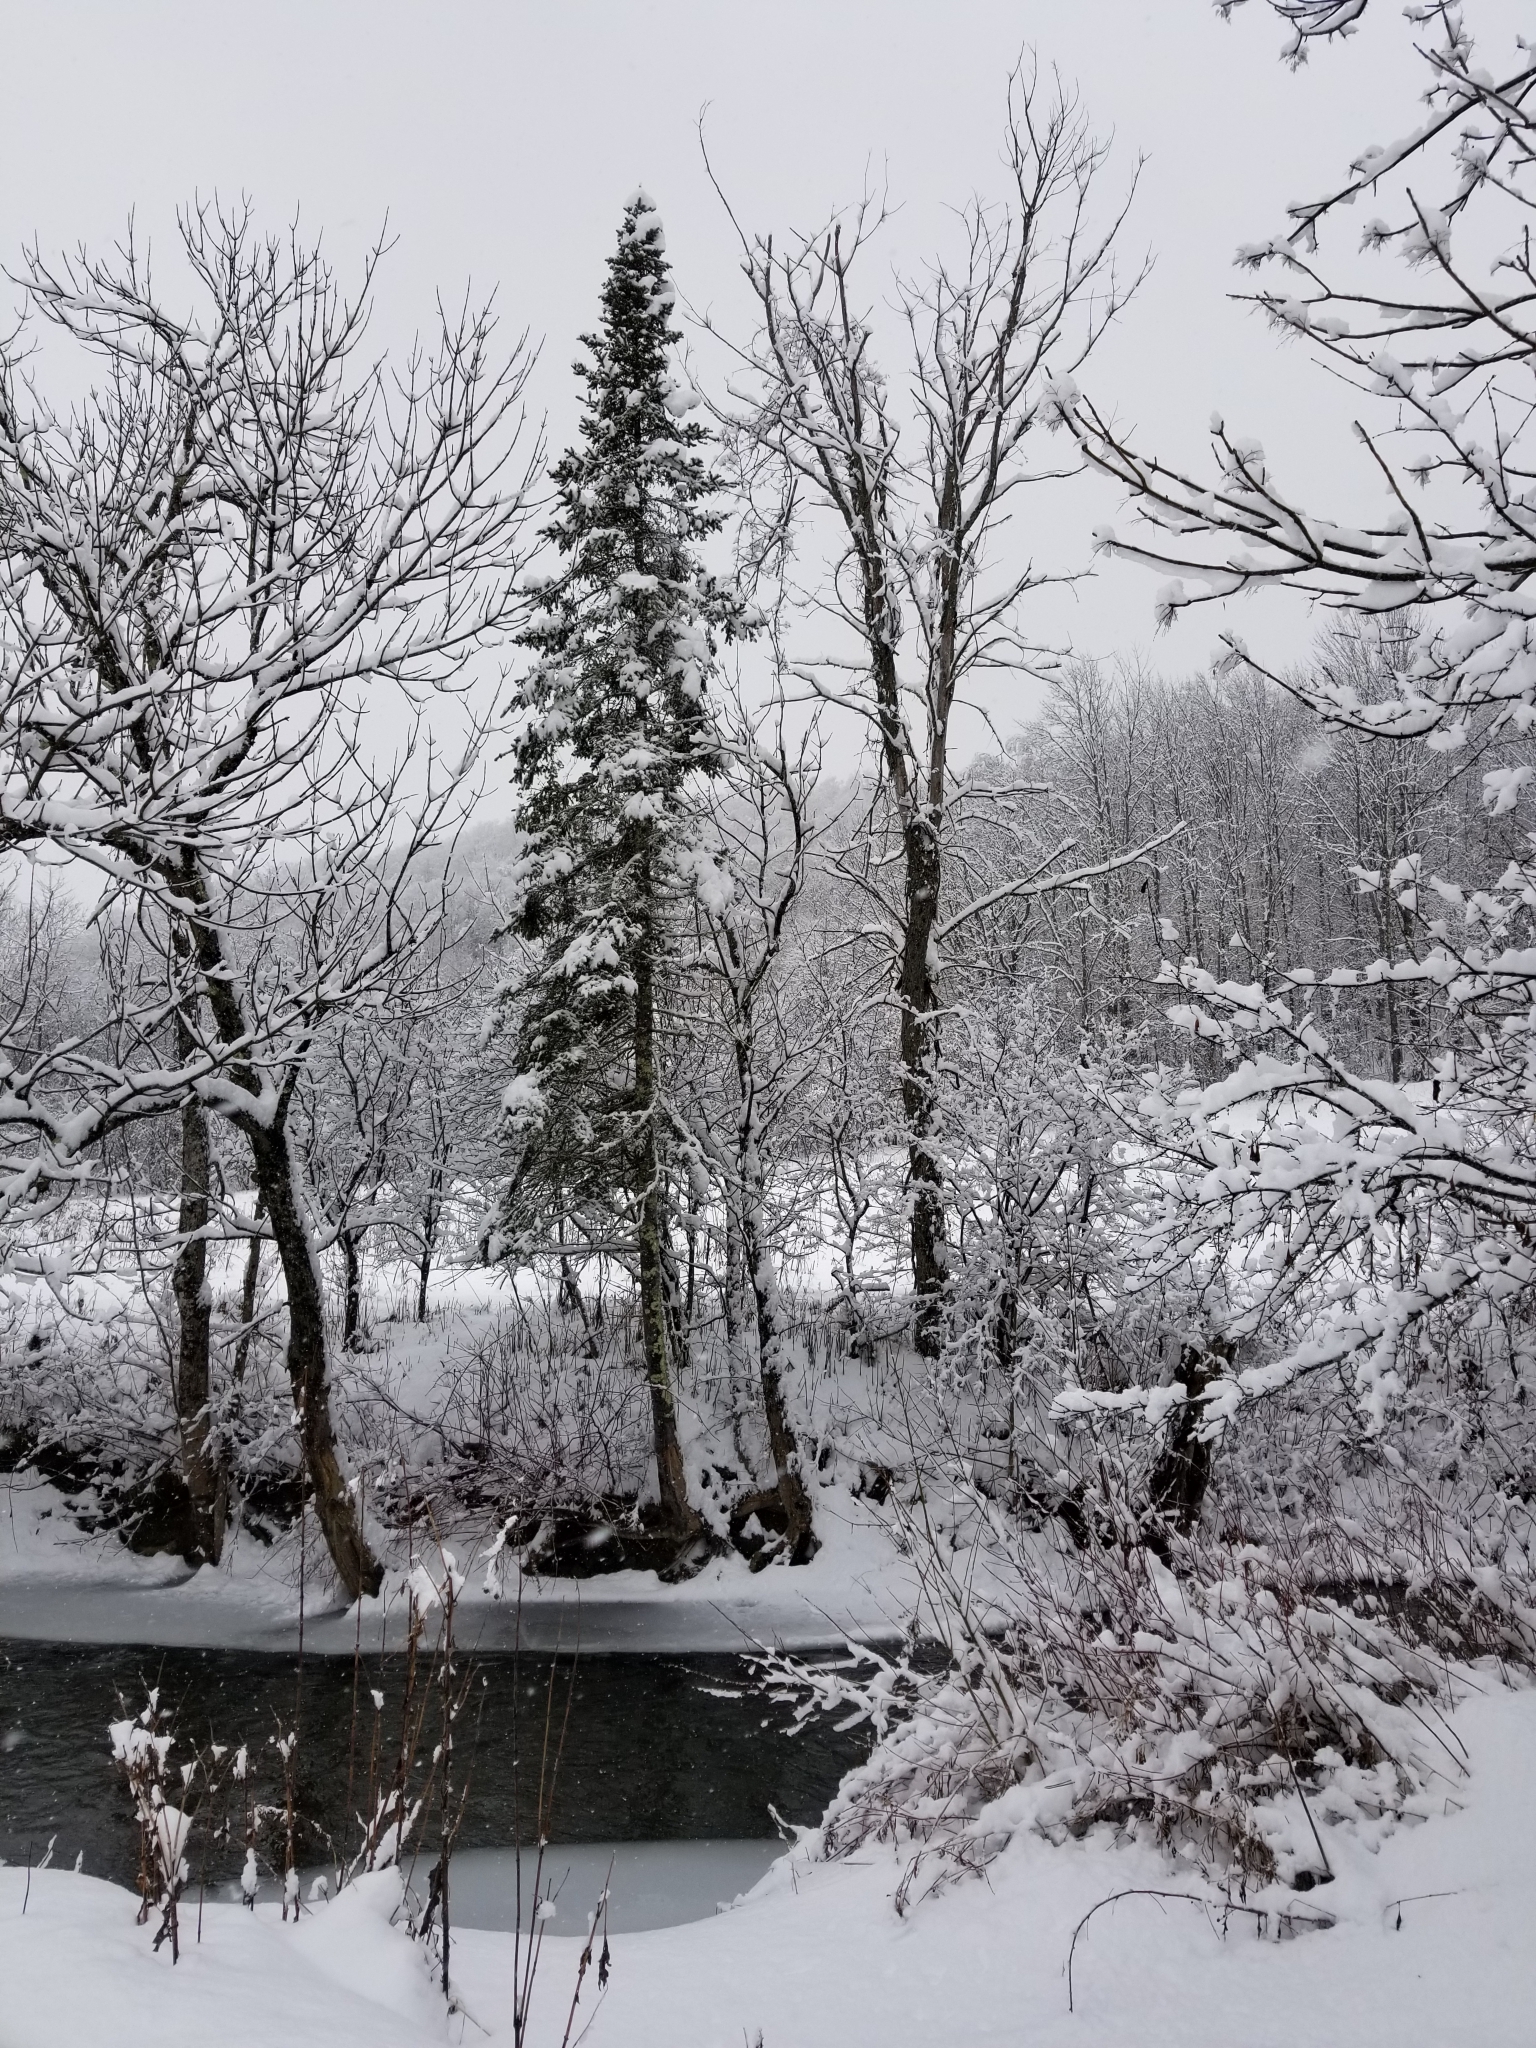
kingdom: Plantae
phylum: Tracheophyta
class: Pinopsida
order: Pinales
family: Pinaceae
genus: Abies
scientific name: Abies balsamea
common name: Balsam fir
